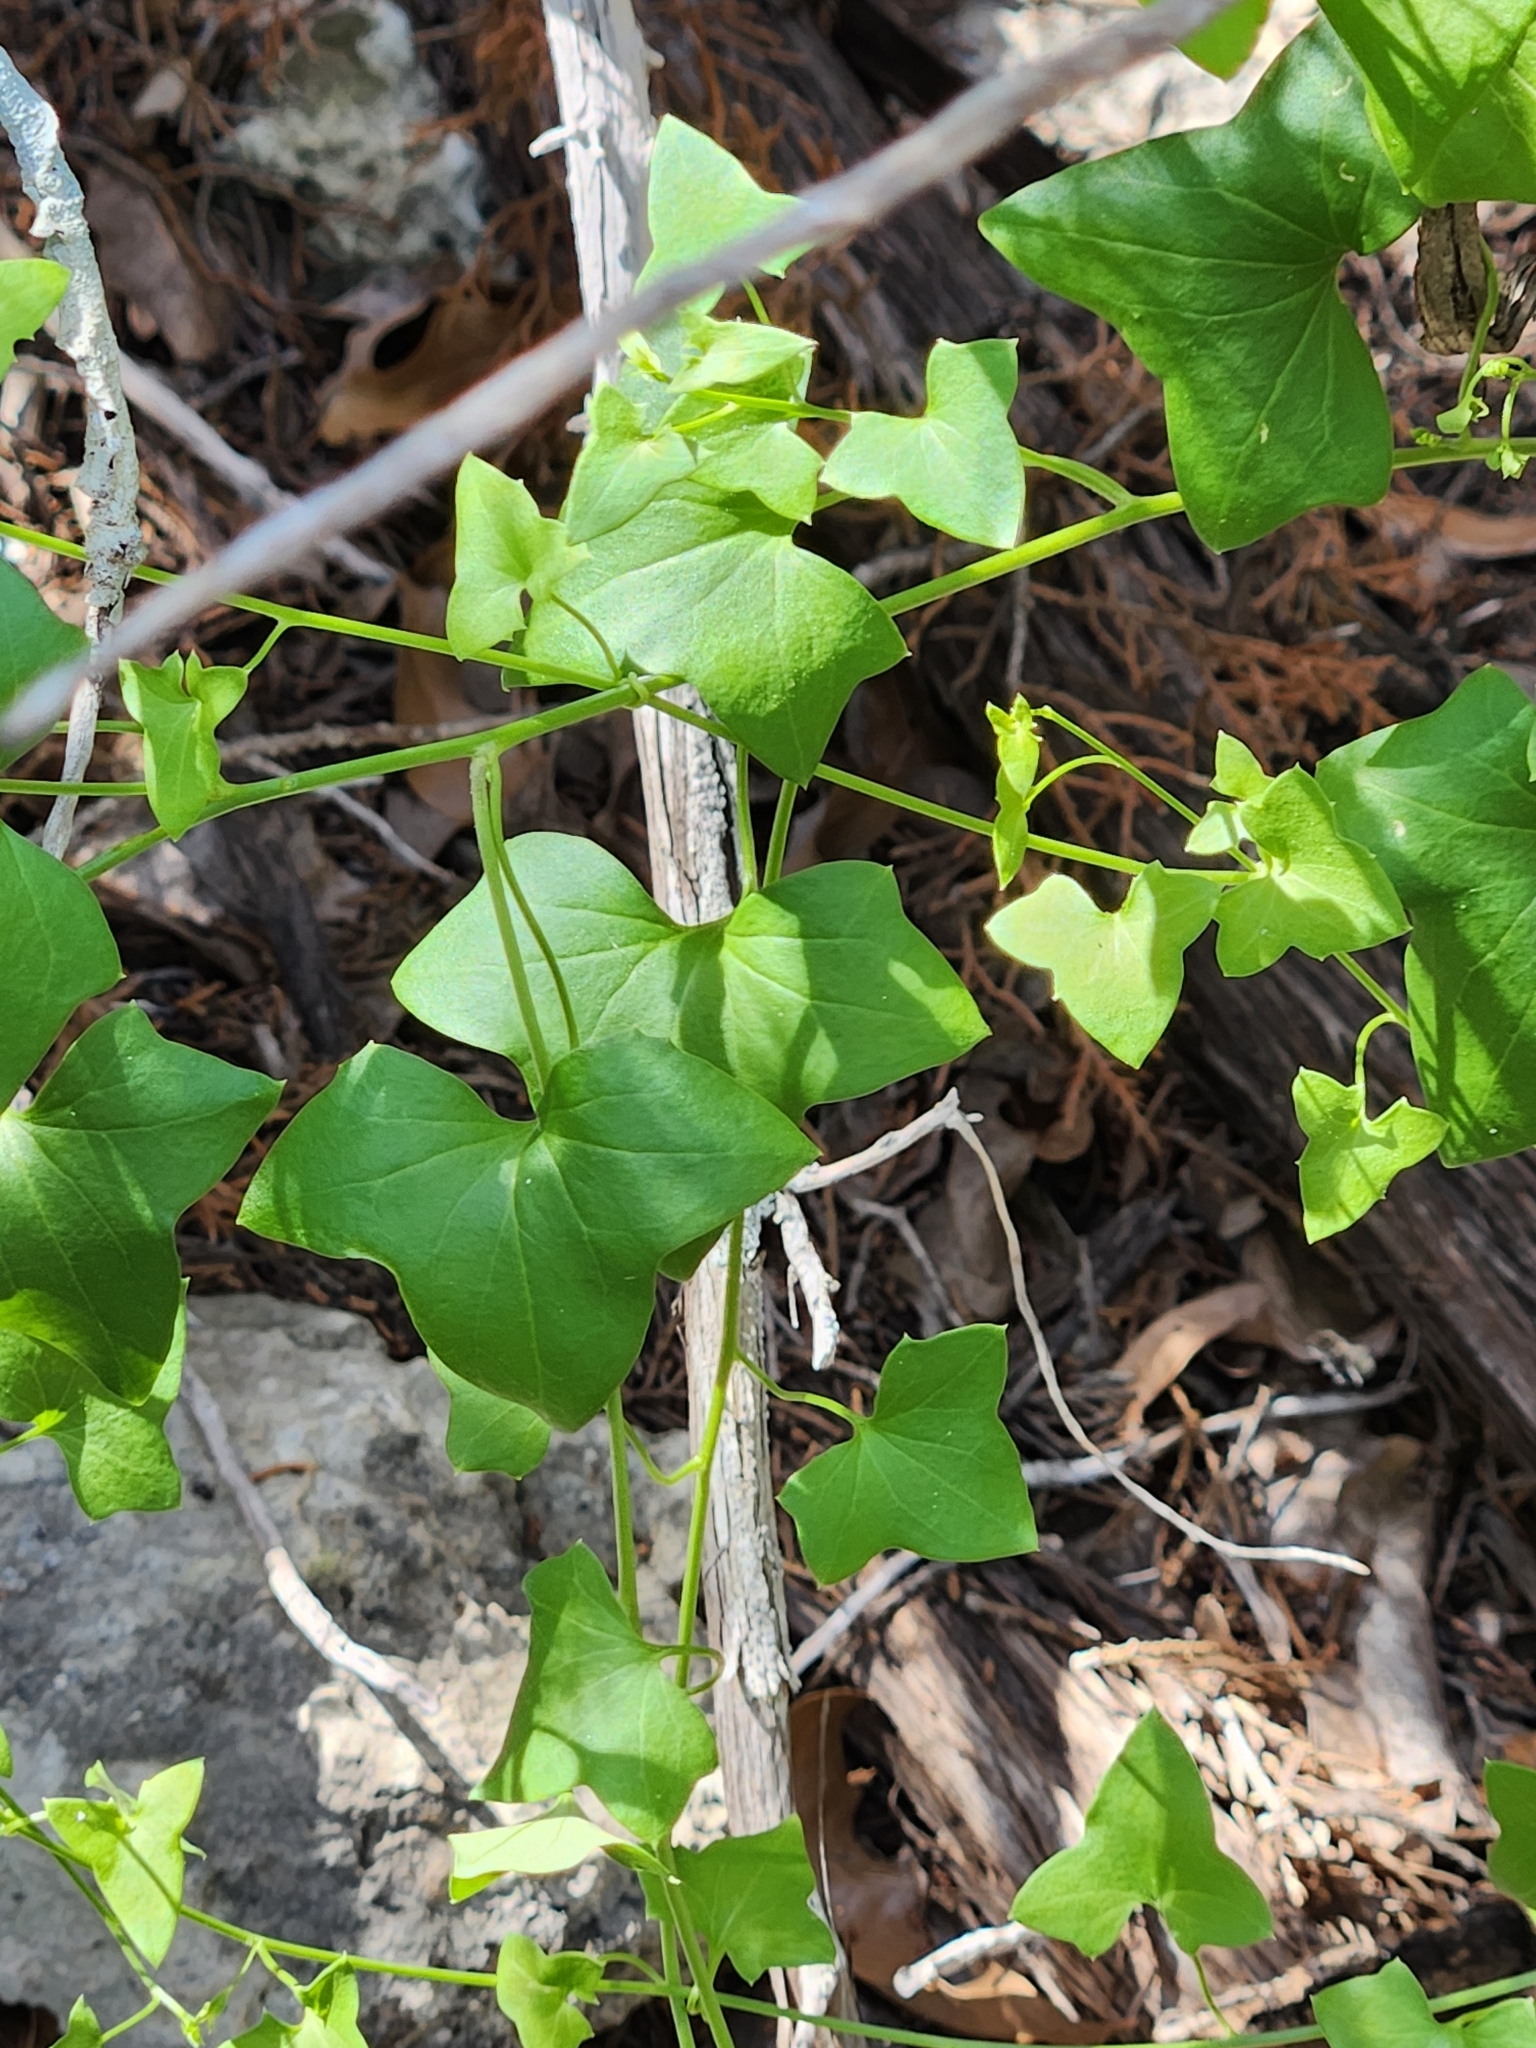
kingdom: Plantae
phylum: Tracheophyta
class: Magnoliopsida
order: Lamiales
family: Plantaginaceae
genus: Maurandella
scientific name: Maurandella antirrhiniflora
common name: Violet twining-snapdragon
